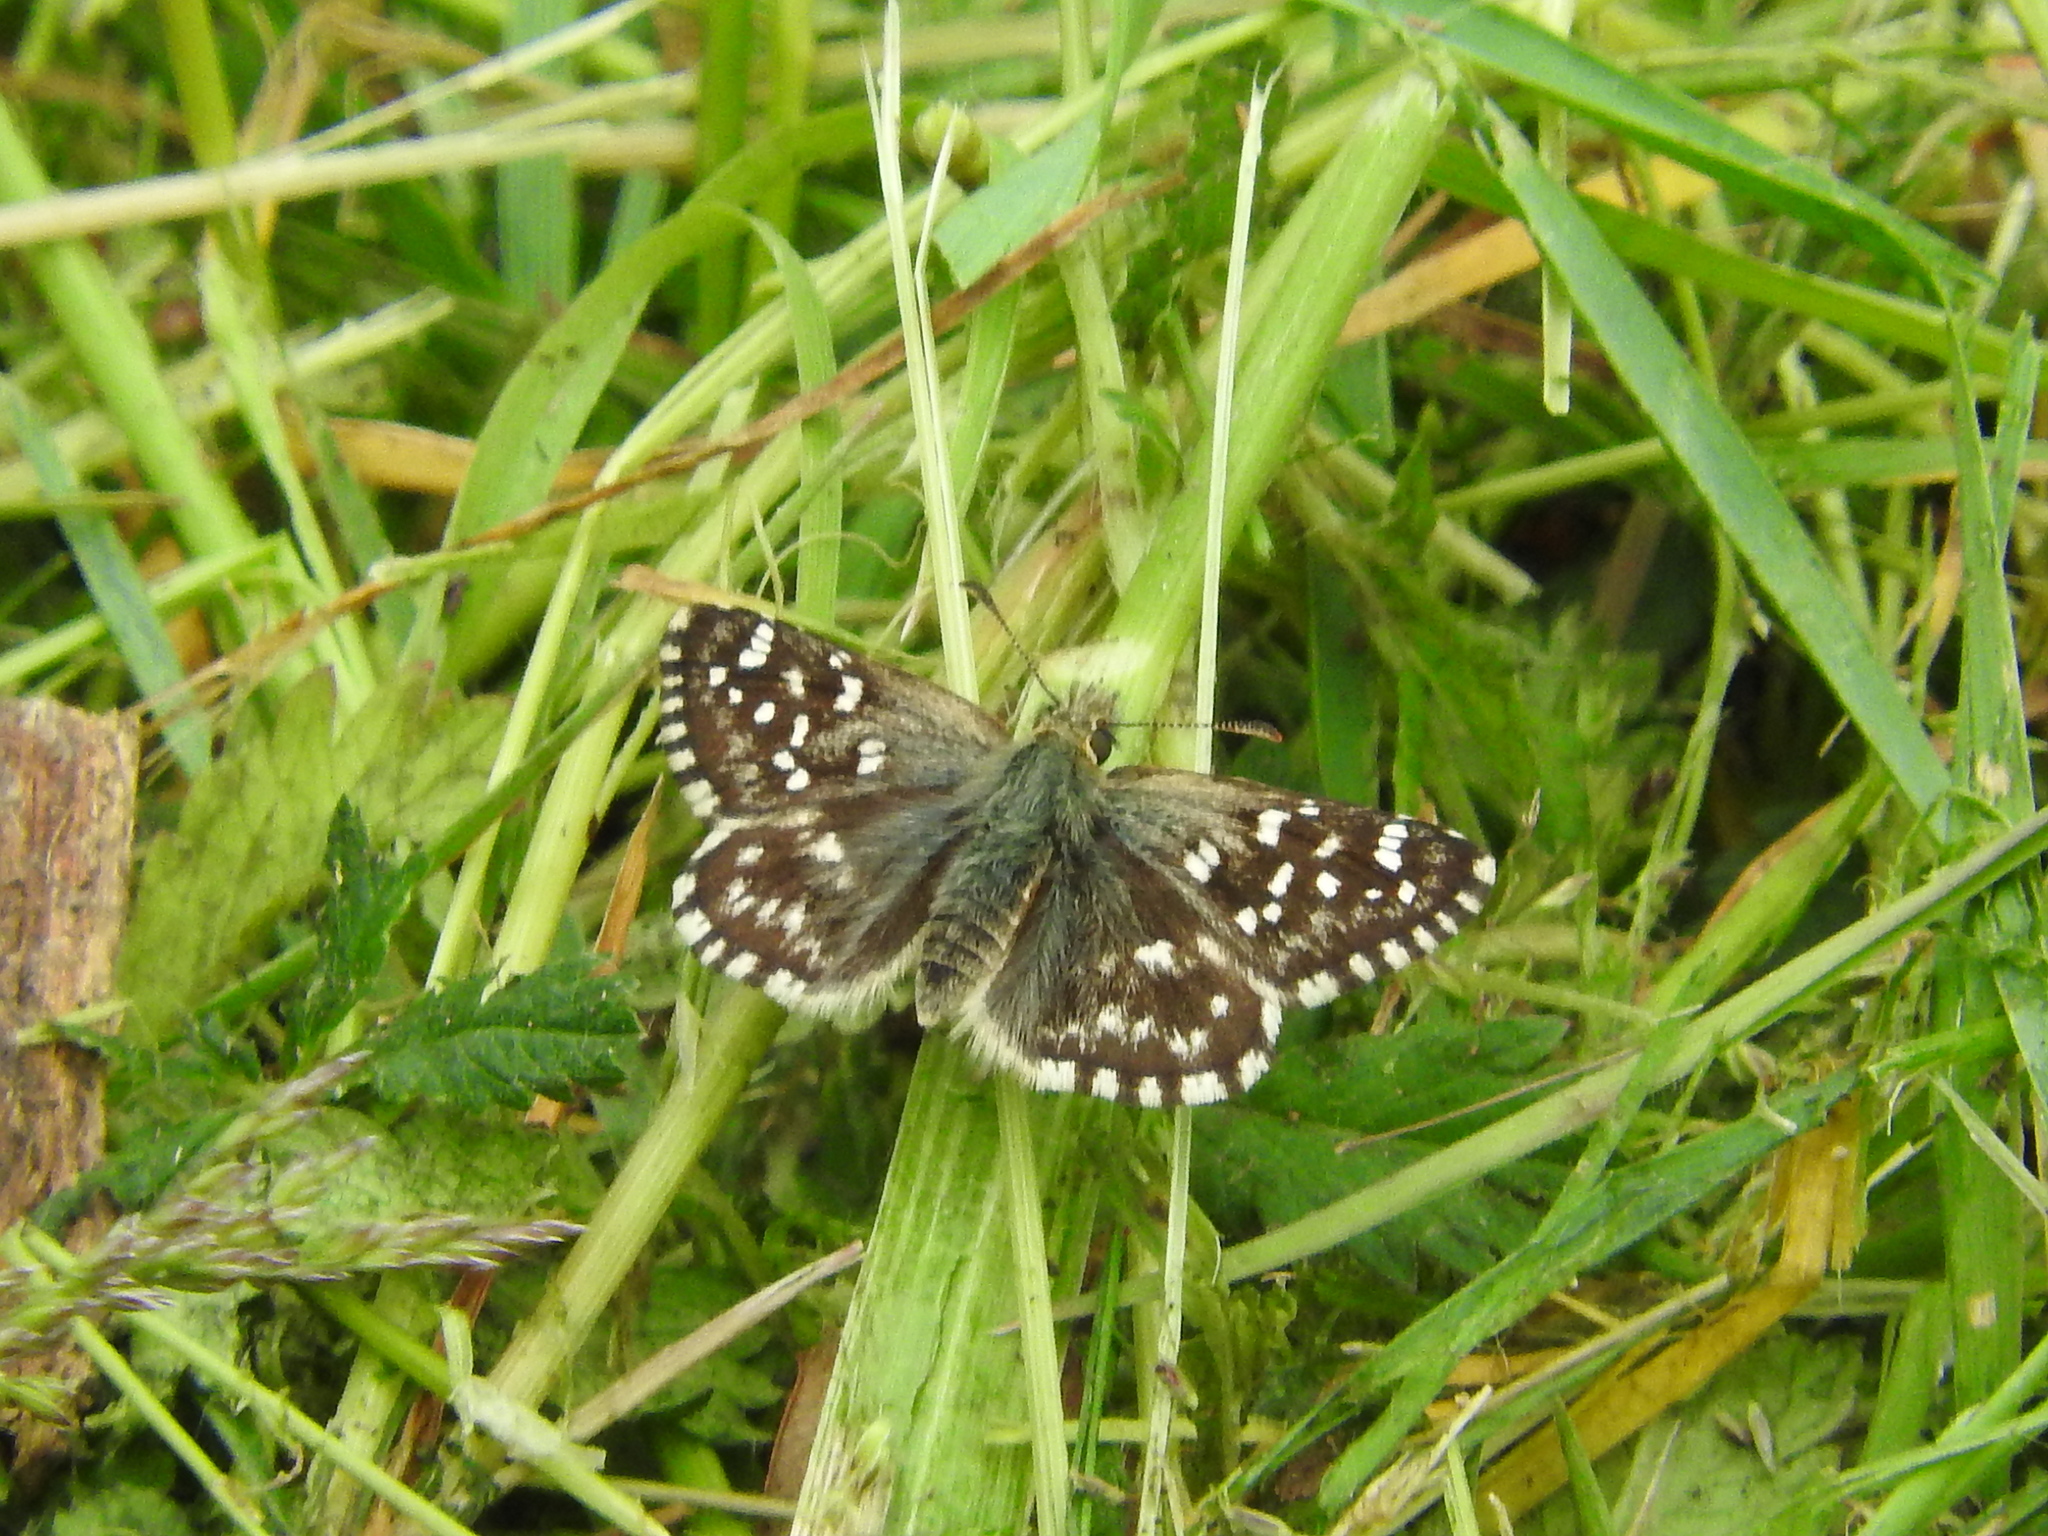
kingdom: Animalia
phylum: Arthropoda
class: Insecta
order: Lepidoptera
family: Hesperiidae
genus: Pyrgus
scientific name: Pyrgus malvoides
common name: Southern grizzled skipper
